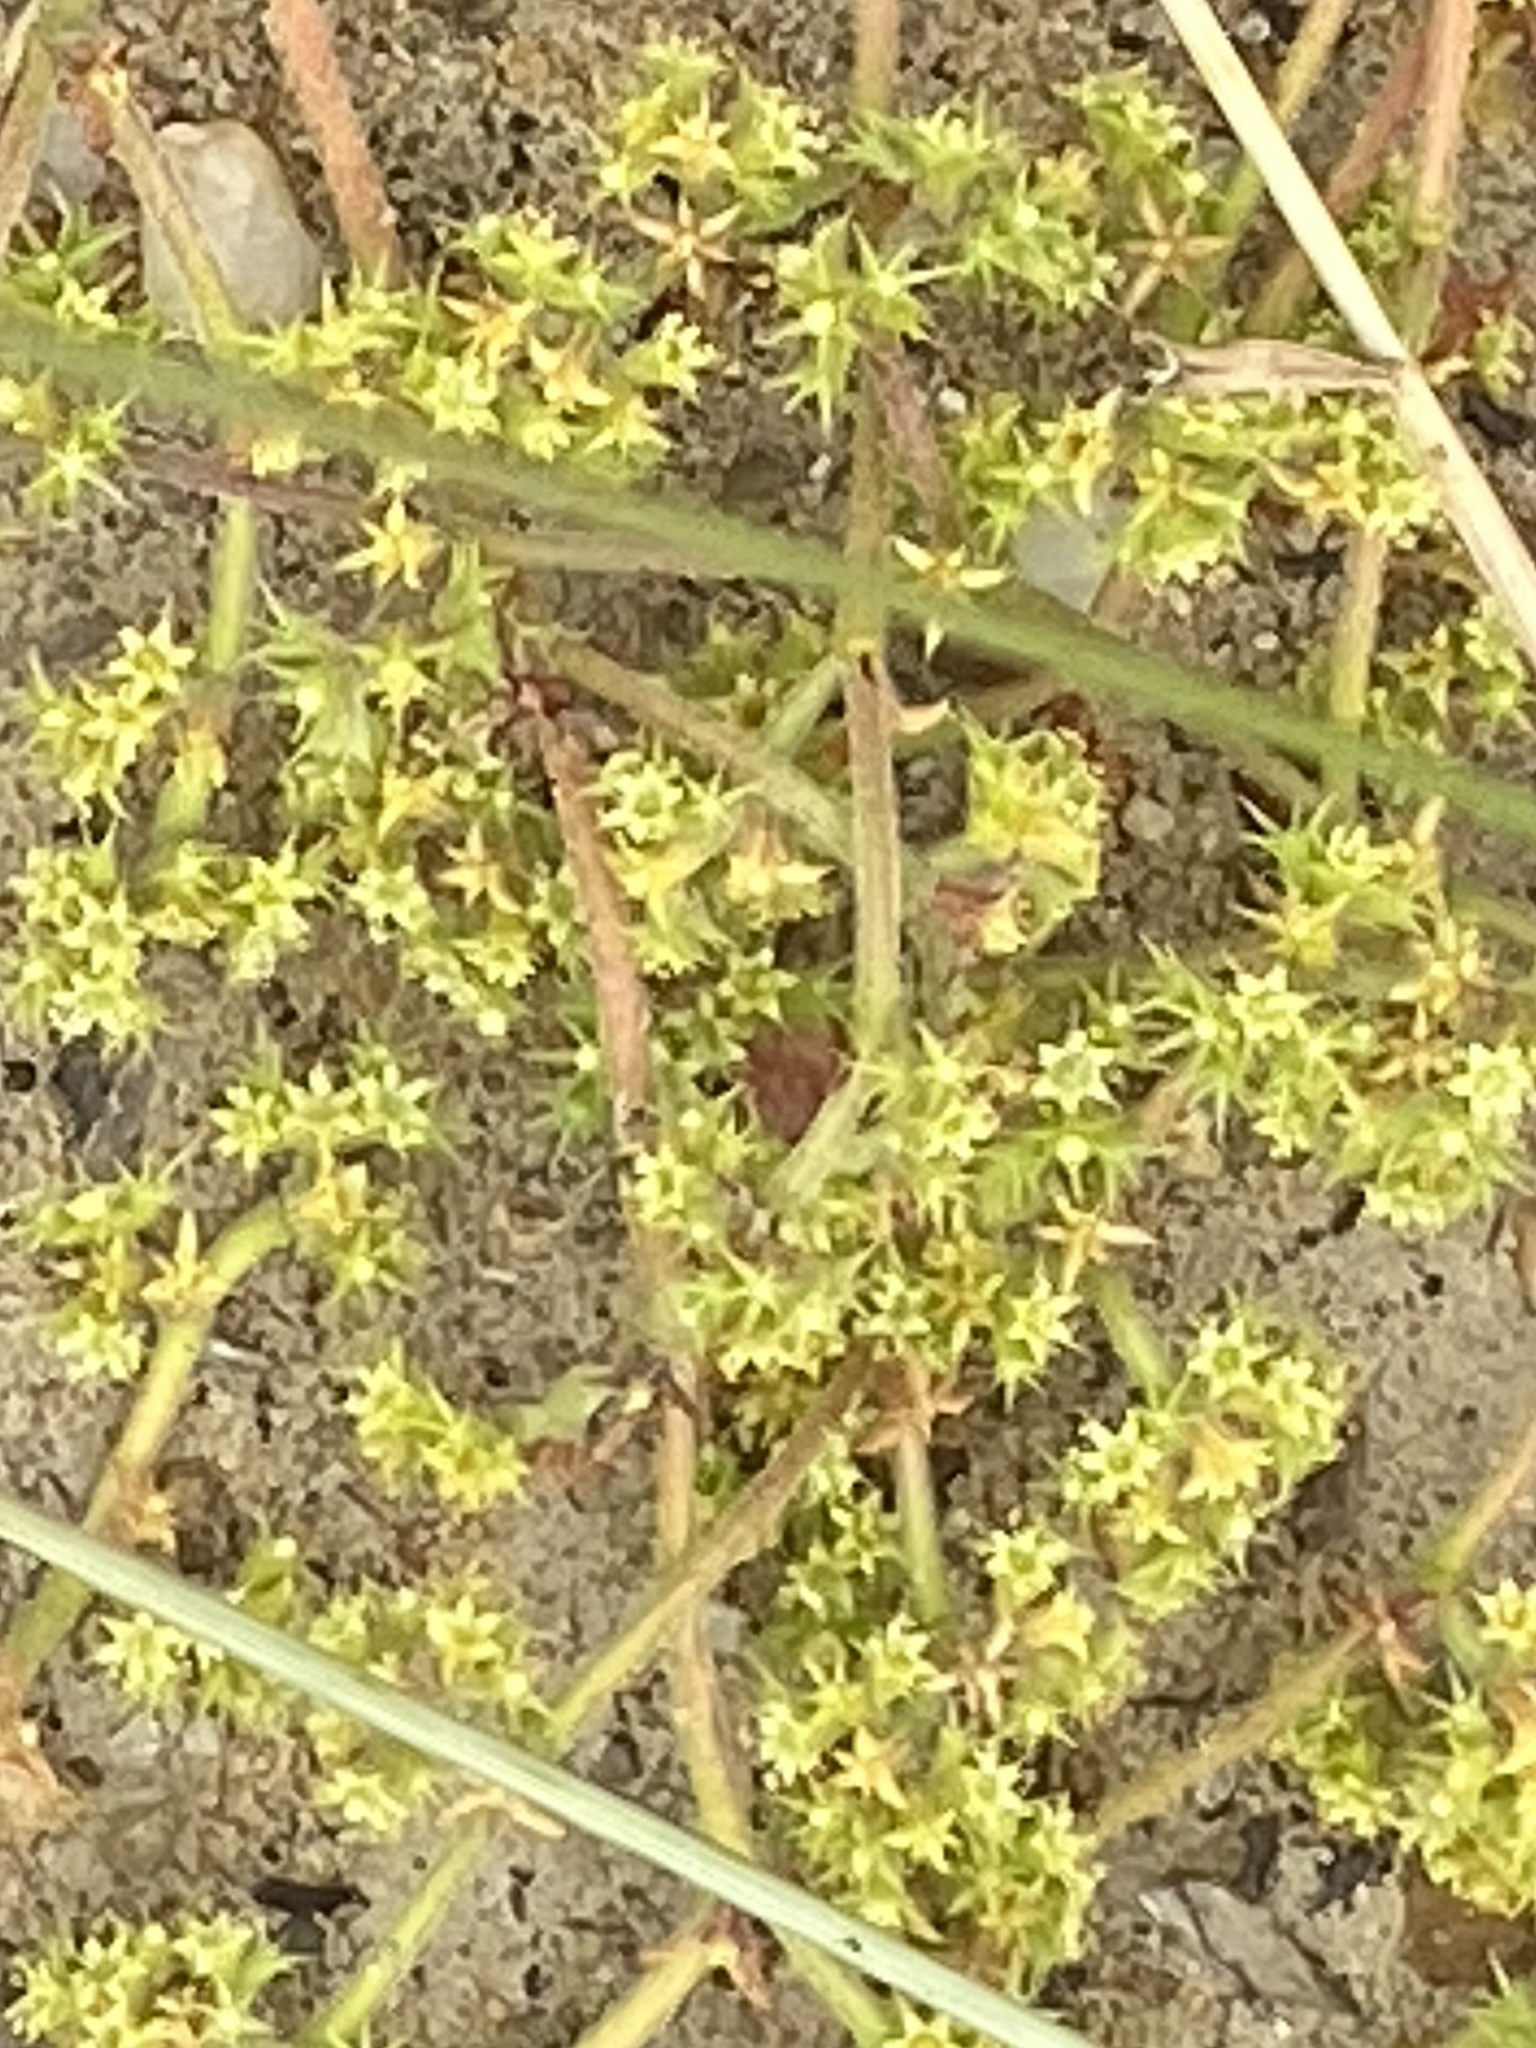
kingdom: Plantae
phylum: Tracheophyta
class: Magnoliopsida
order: Caryophyllales
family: Polygonaceae
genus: Chorizanthe
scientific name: Chorizanthe procumbens
